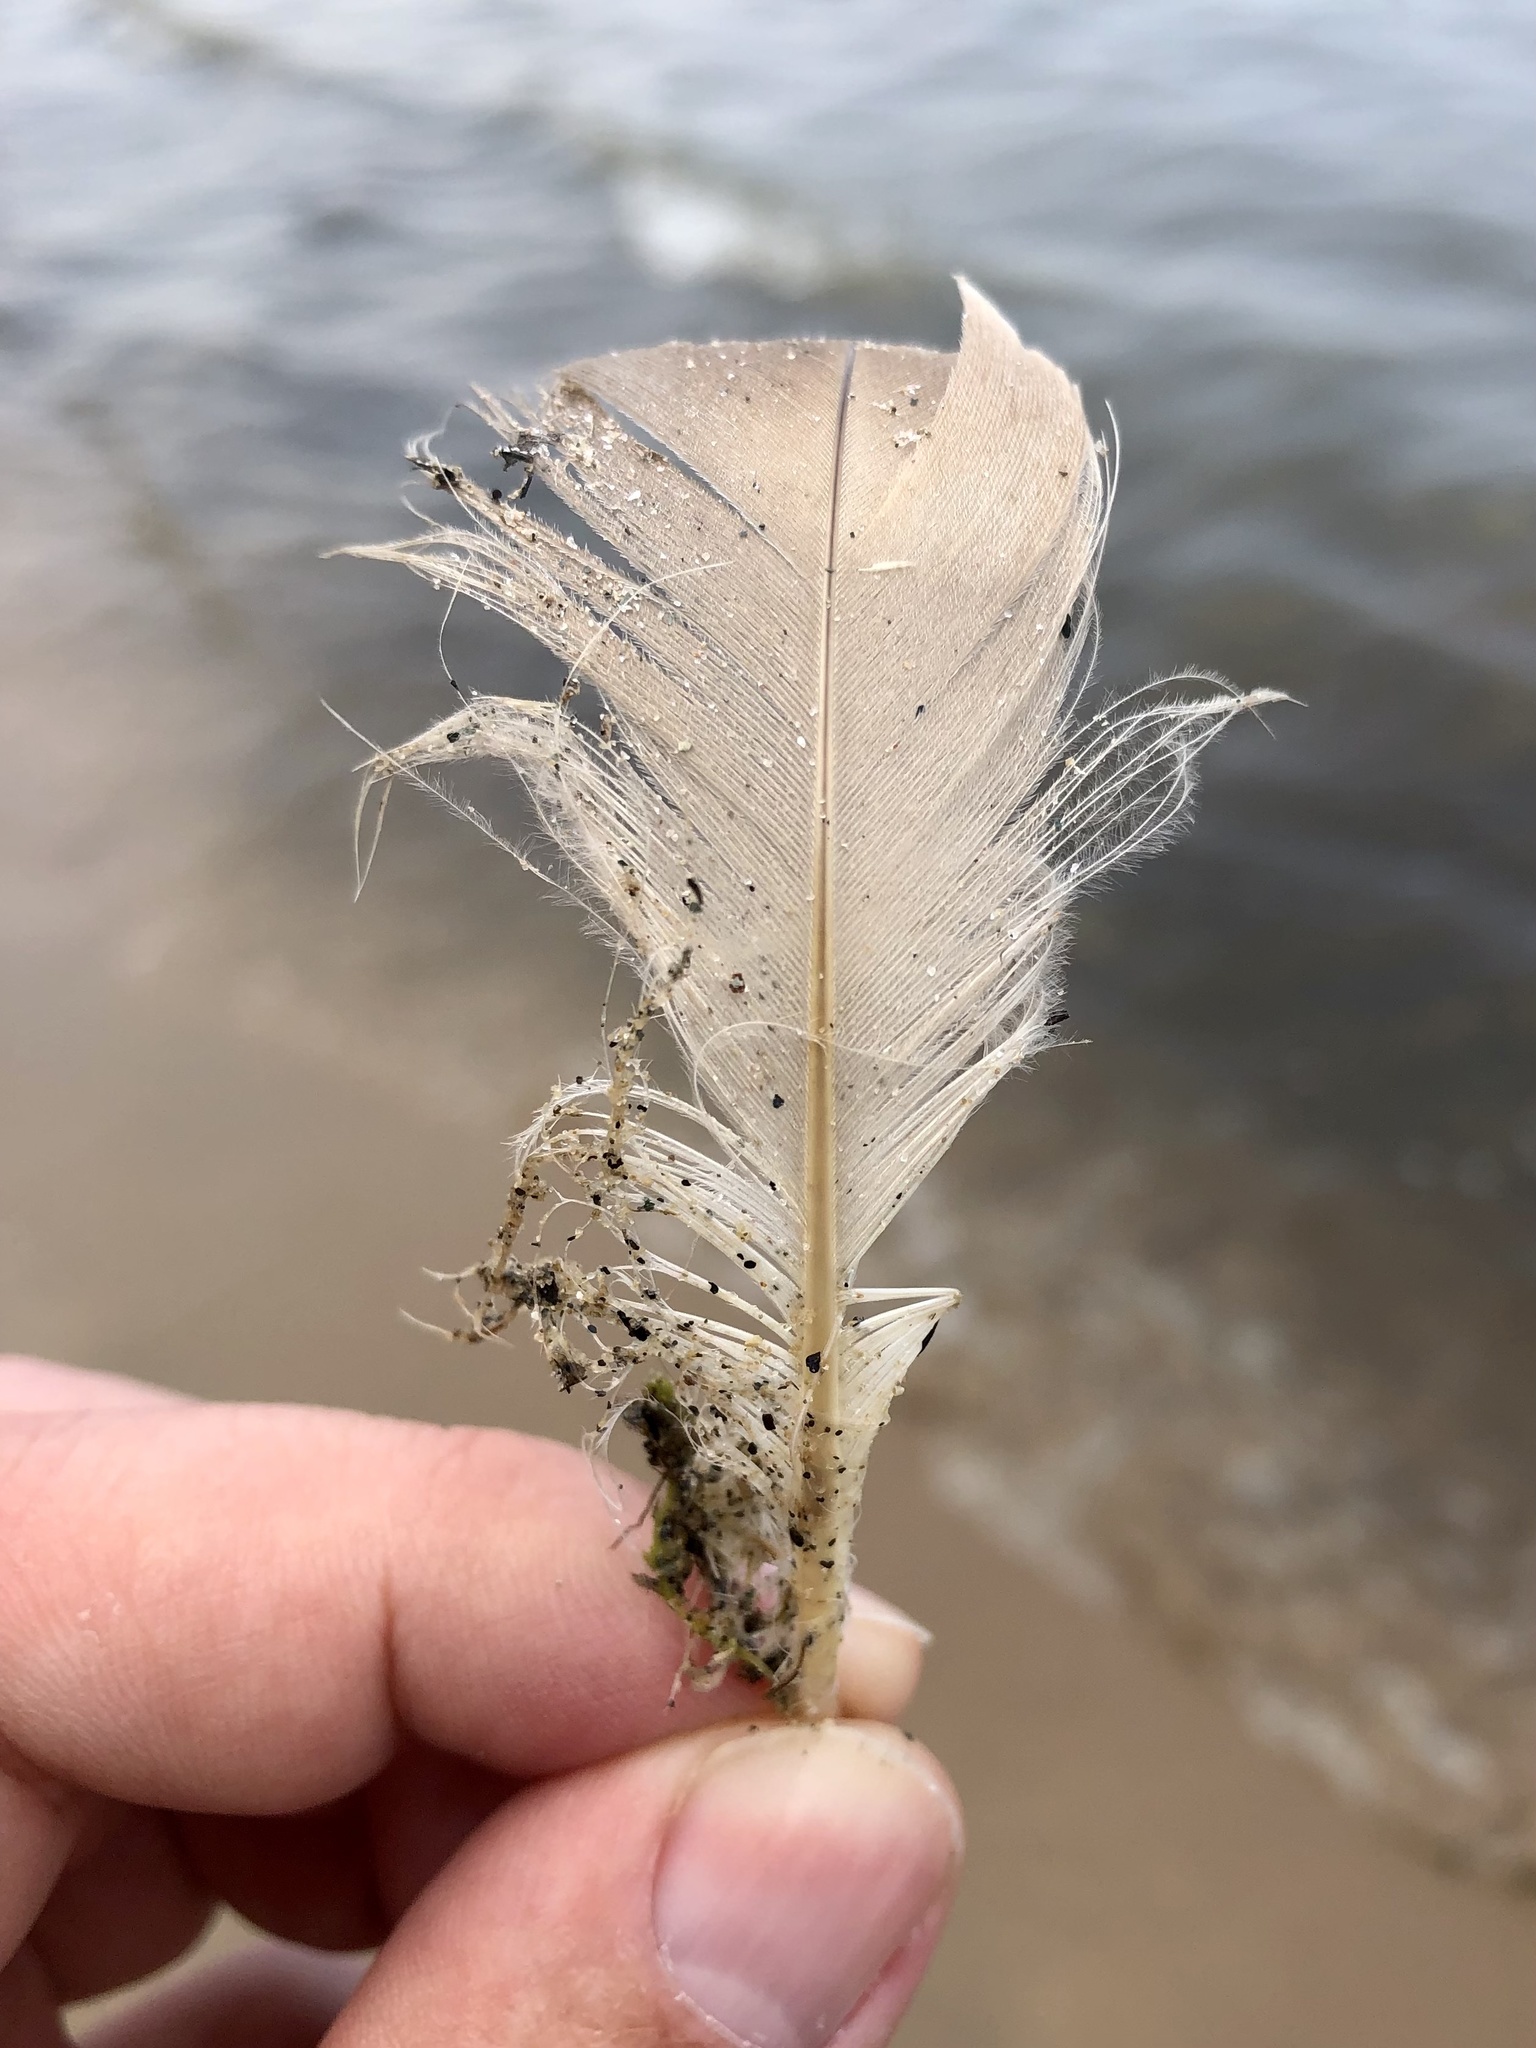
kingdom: Animalia
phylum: Chordata
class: Aves
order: Anseriformes
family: Anatidae
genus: Branta
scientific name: Branta canadensis
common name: Canada goose
